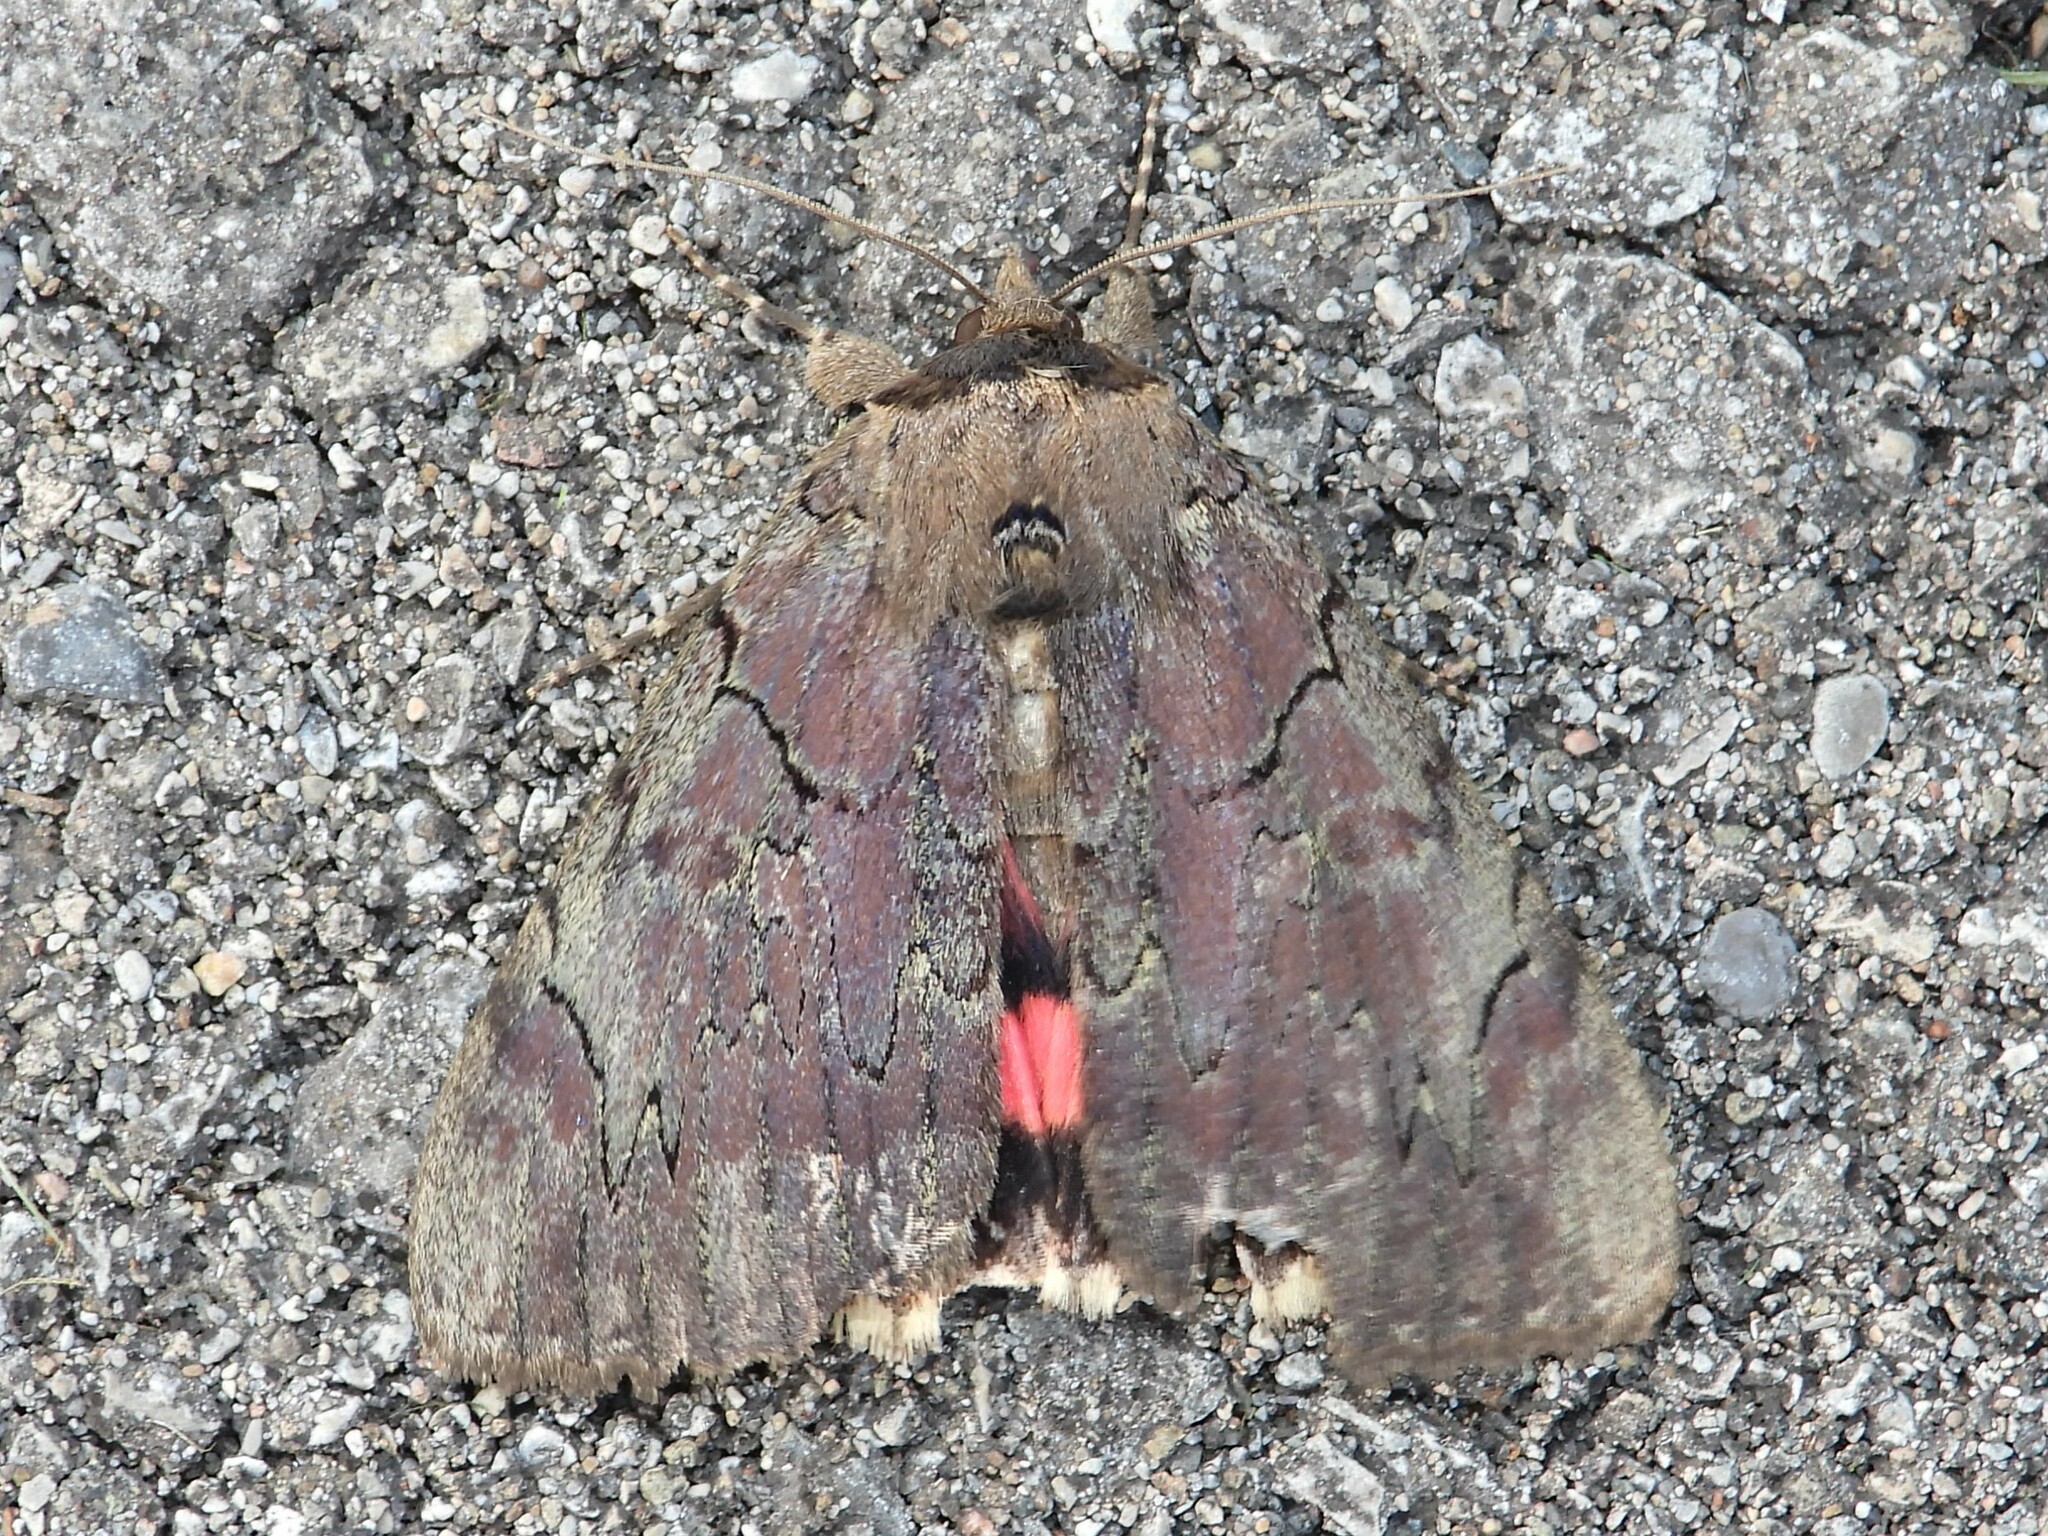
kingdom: Animalia
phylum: Arthropoda
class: Insecta
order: Lepidoptera
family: Erebidae
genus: Catocala
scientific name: Catocala cara
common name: Darling underwing
